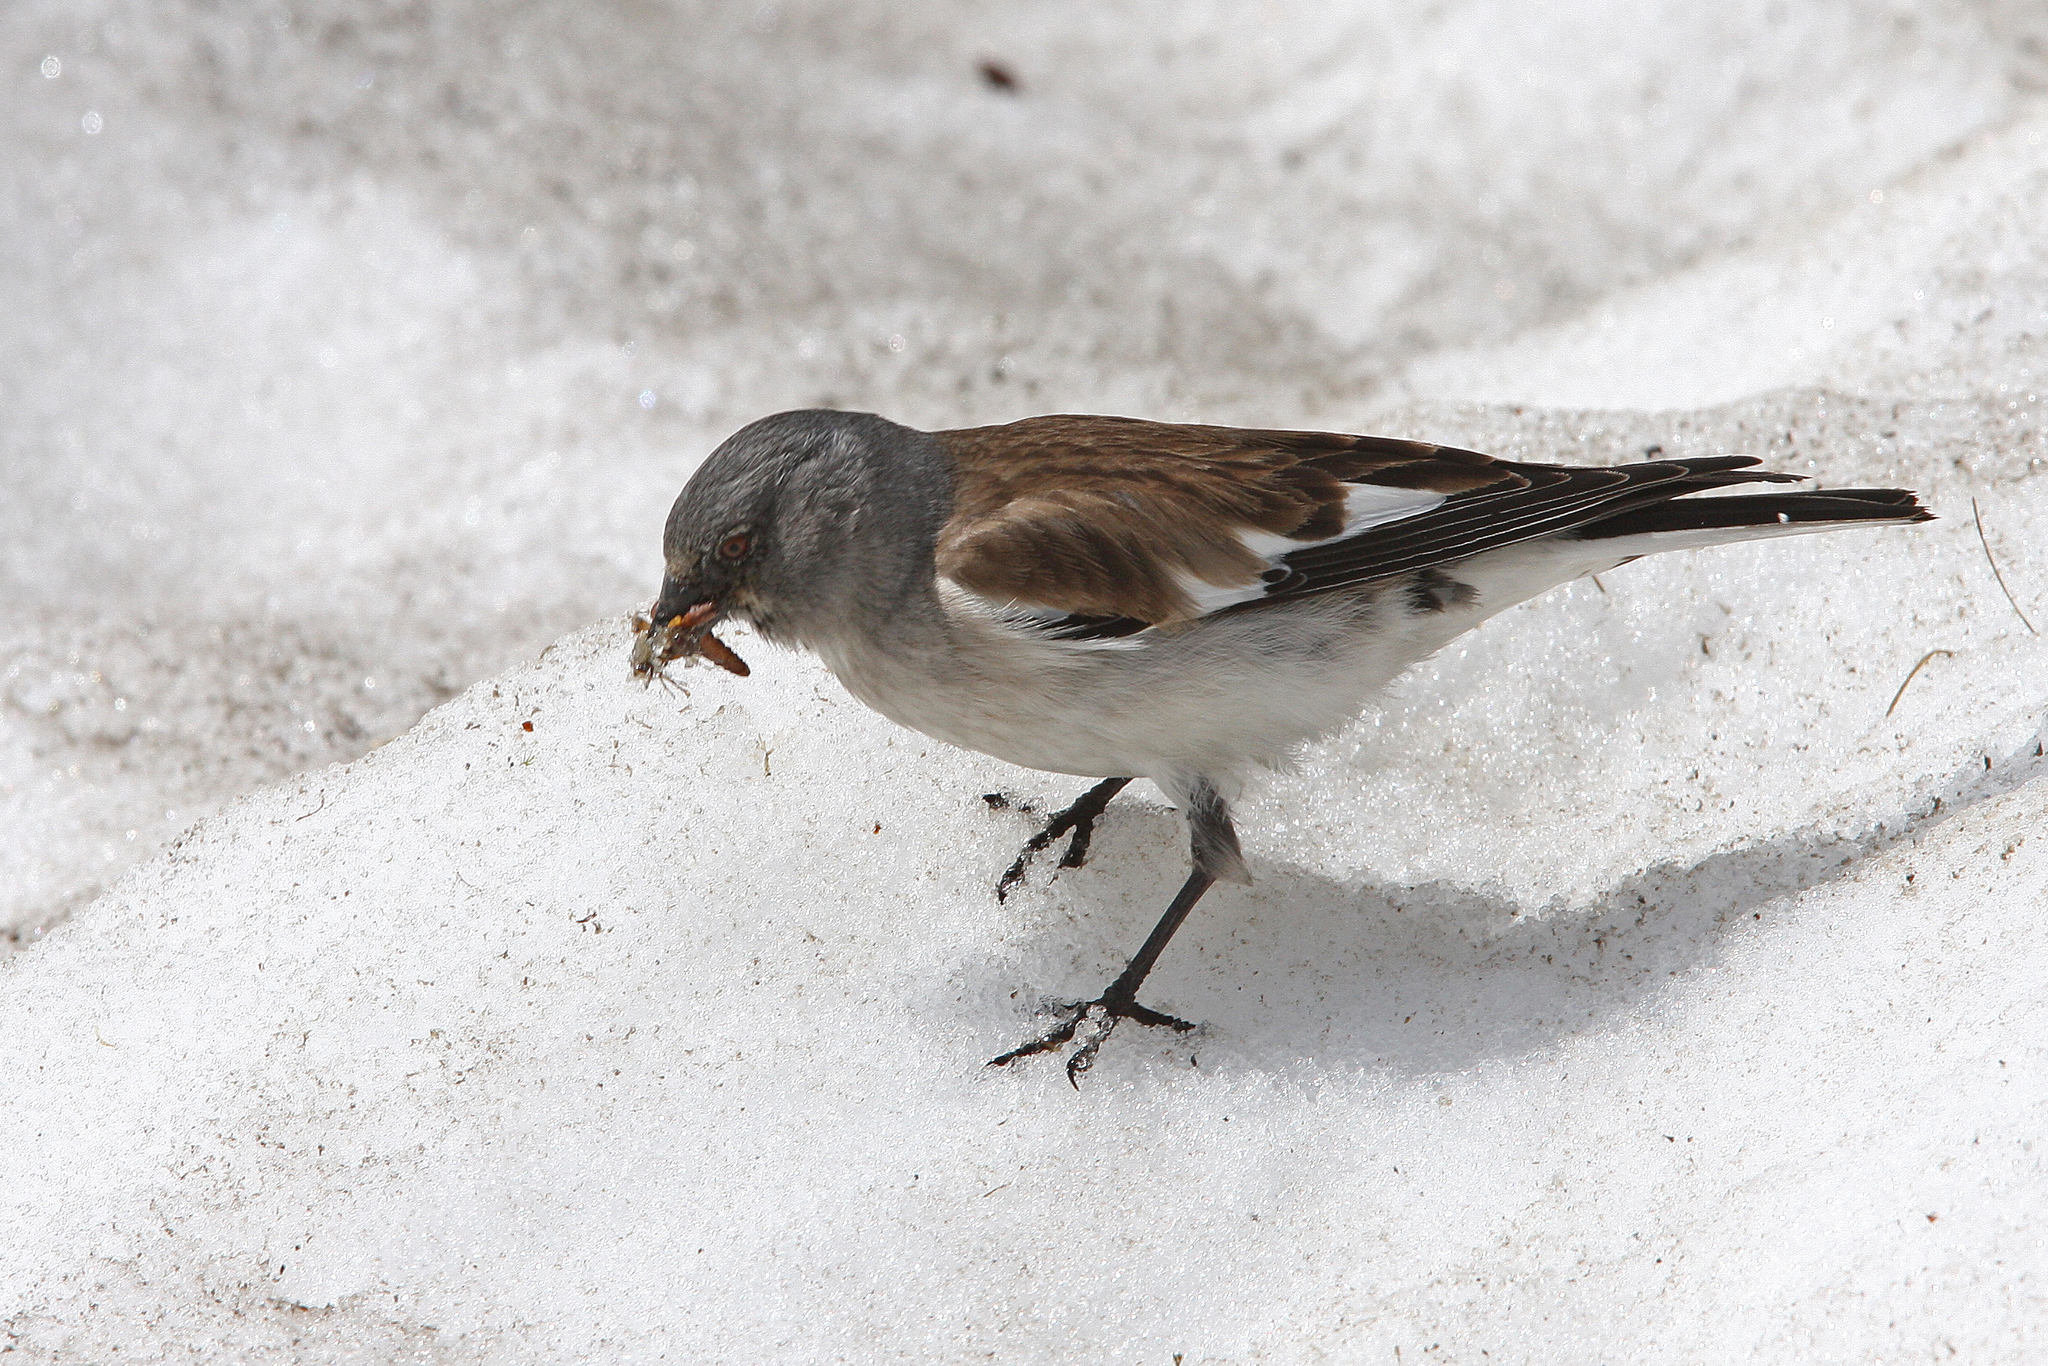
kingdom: Animalia
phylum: Chordata
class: Aves
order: Passeriformes
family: Passeridae
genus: Montifringilla
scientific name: Montifringilla nivalis
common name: White-winged snowfinch
